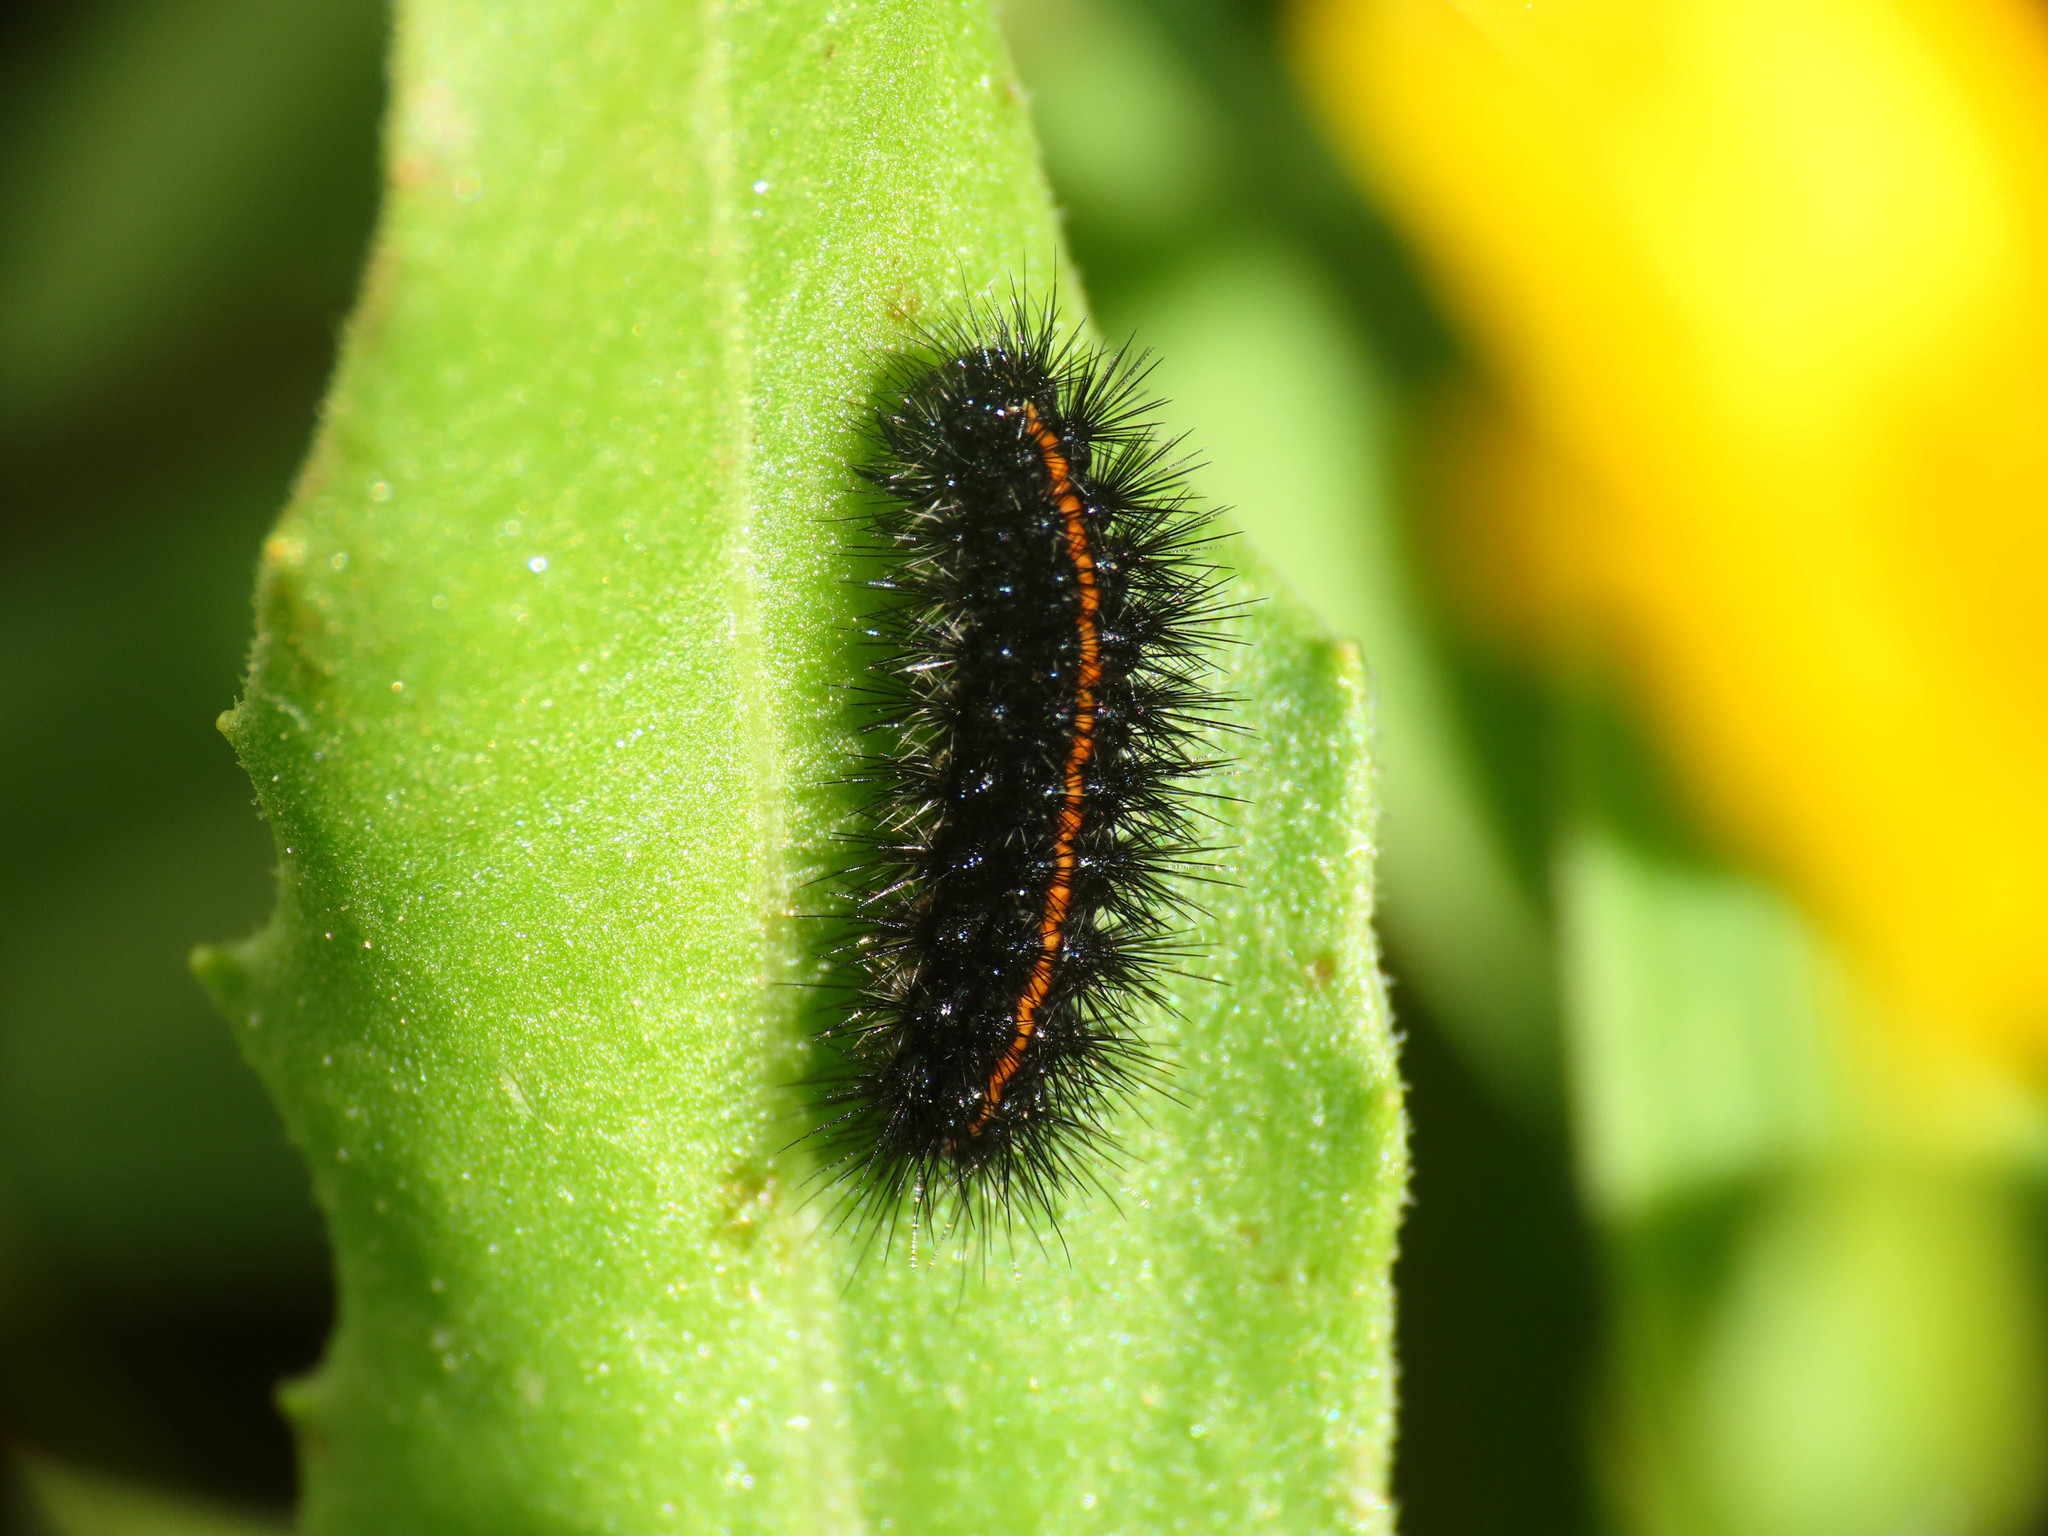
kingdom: Animalia
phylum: Arthropoda
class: Insecta
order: Lepidoptera
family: Erebidae
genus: Coscinia
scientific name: Coscinia Spiris striata
